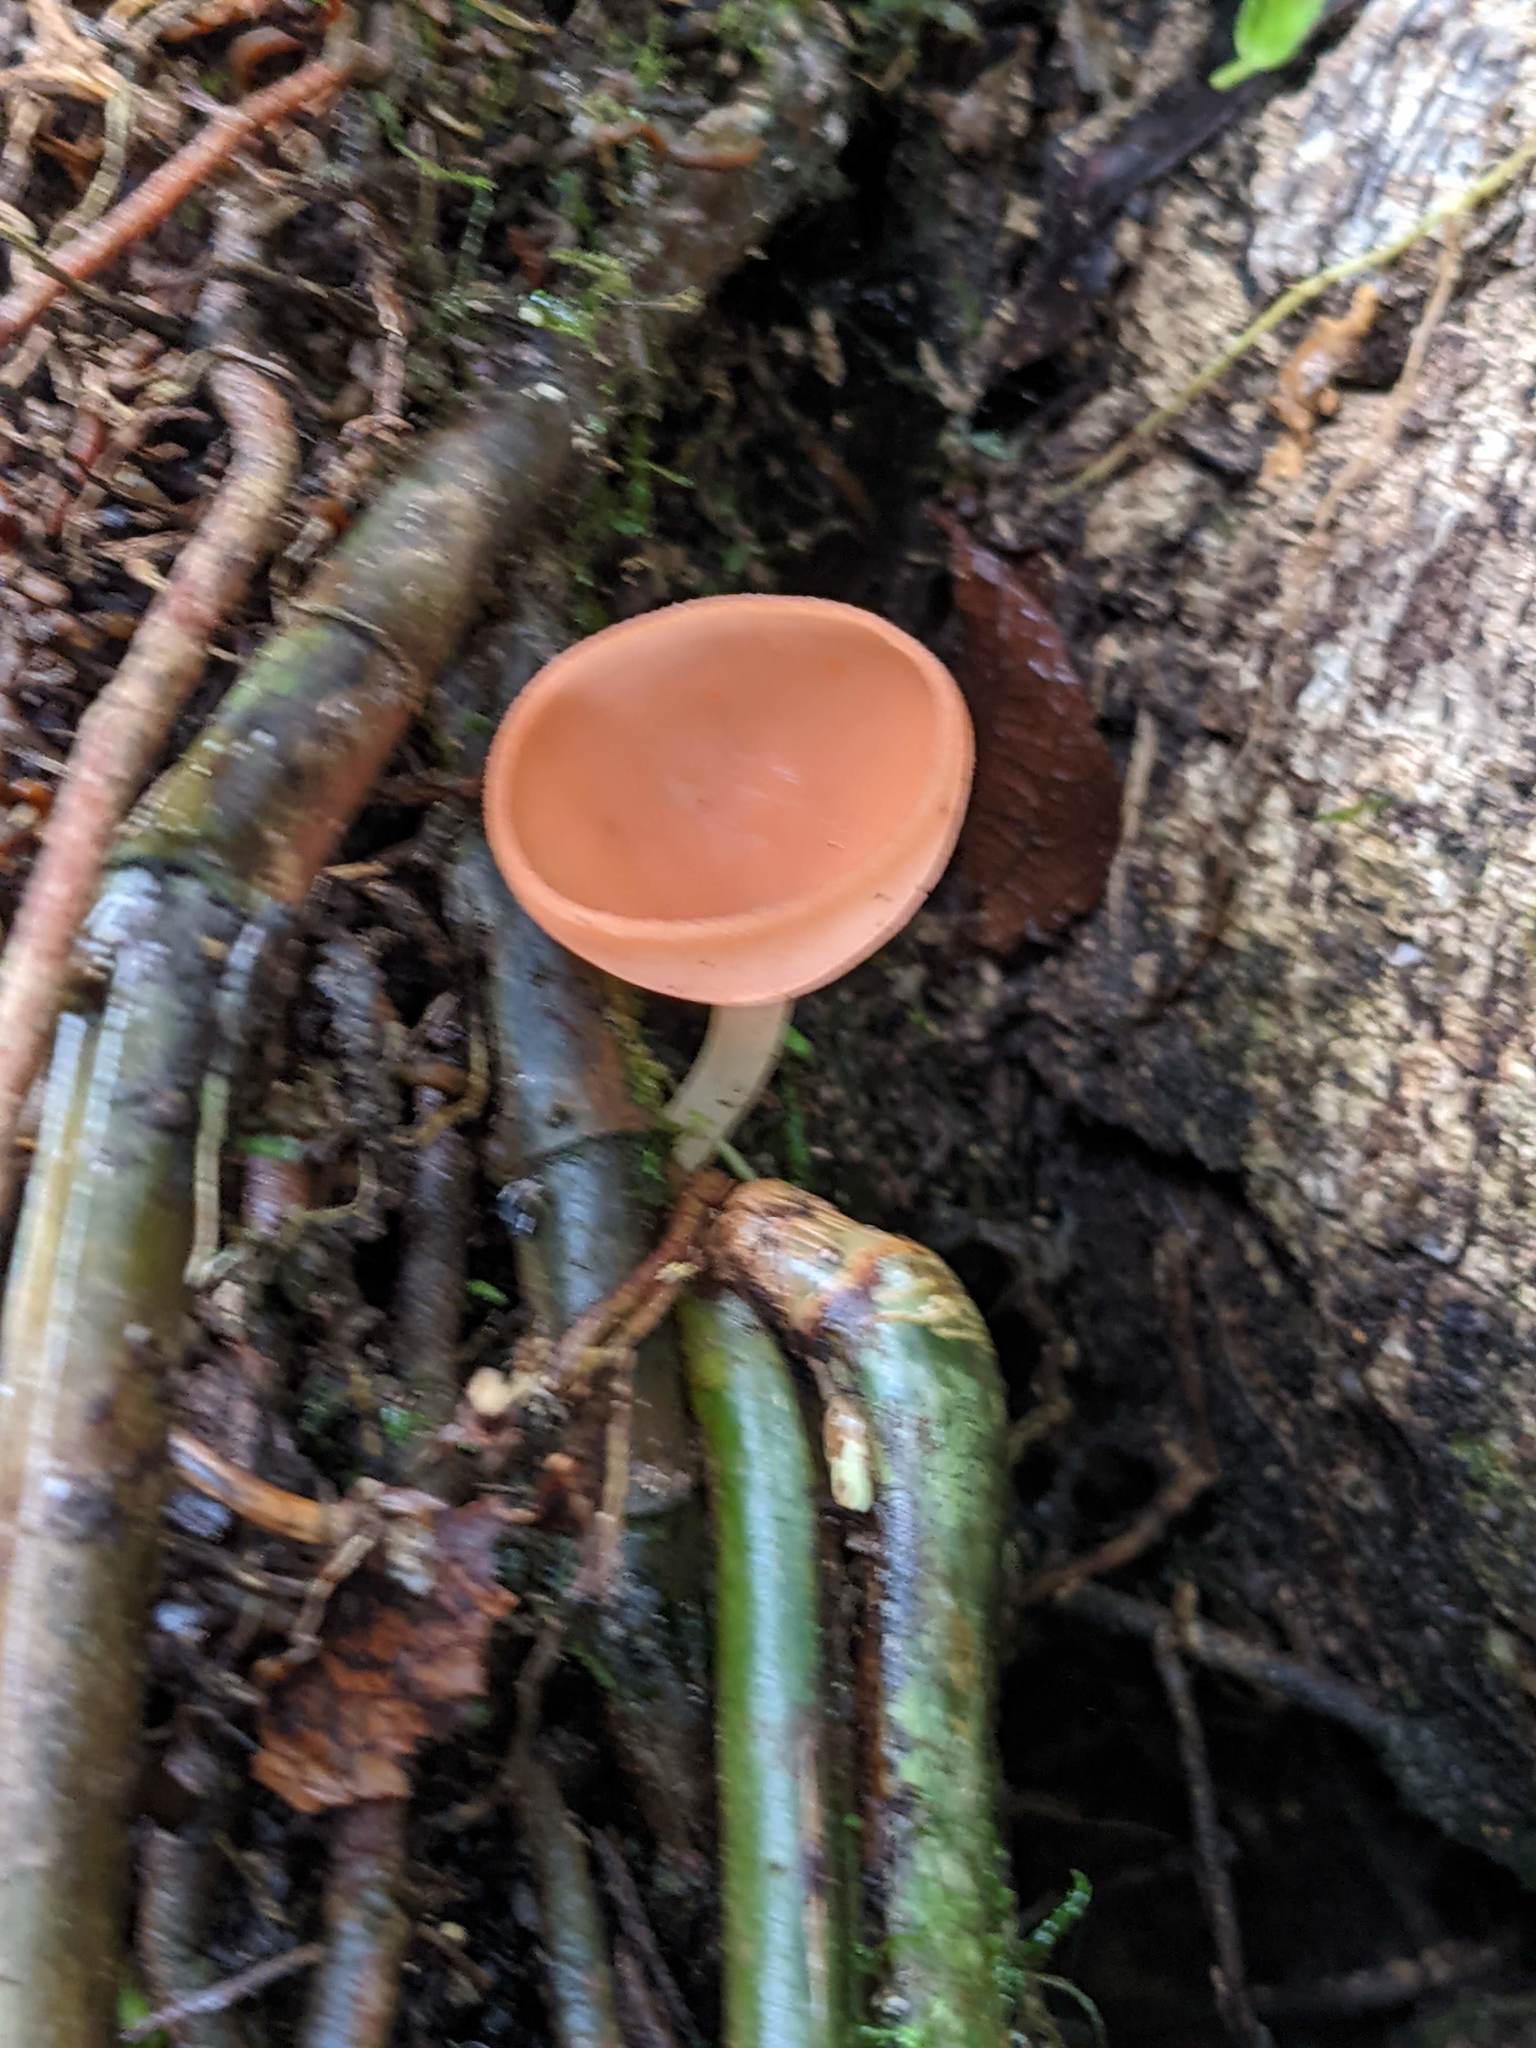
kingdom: Fungi
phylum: Ascomycota
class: Pezizomycetes
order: Pezizales
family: Sarcoscyphaceae
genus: Cookeina
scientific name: Cookeina speciosa
